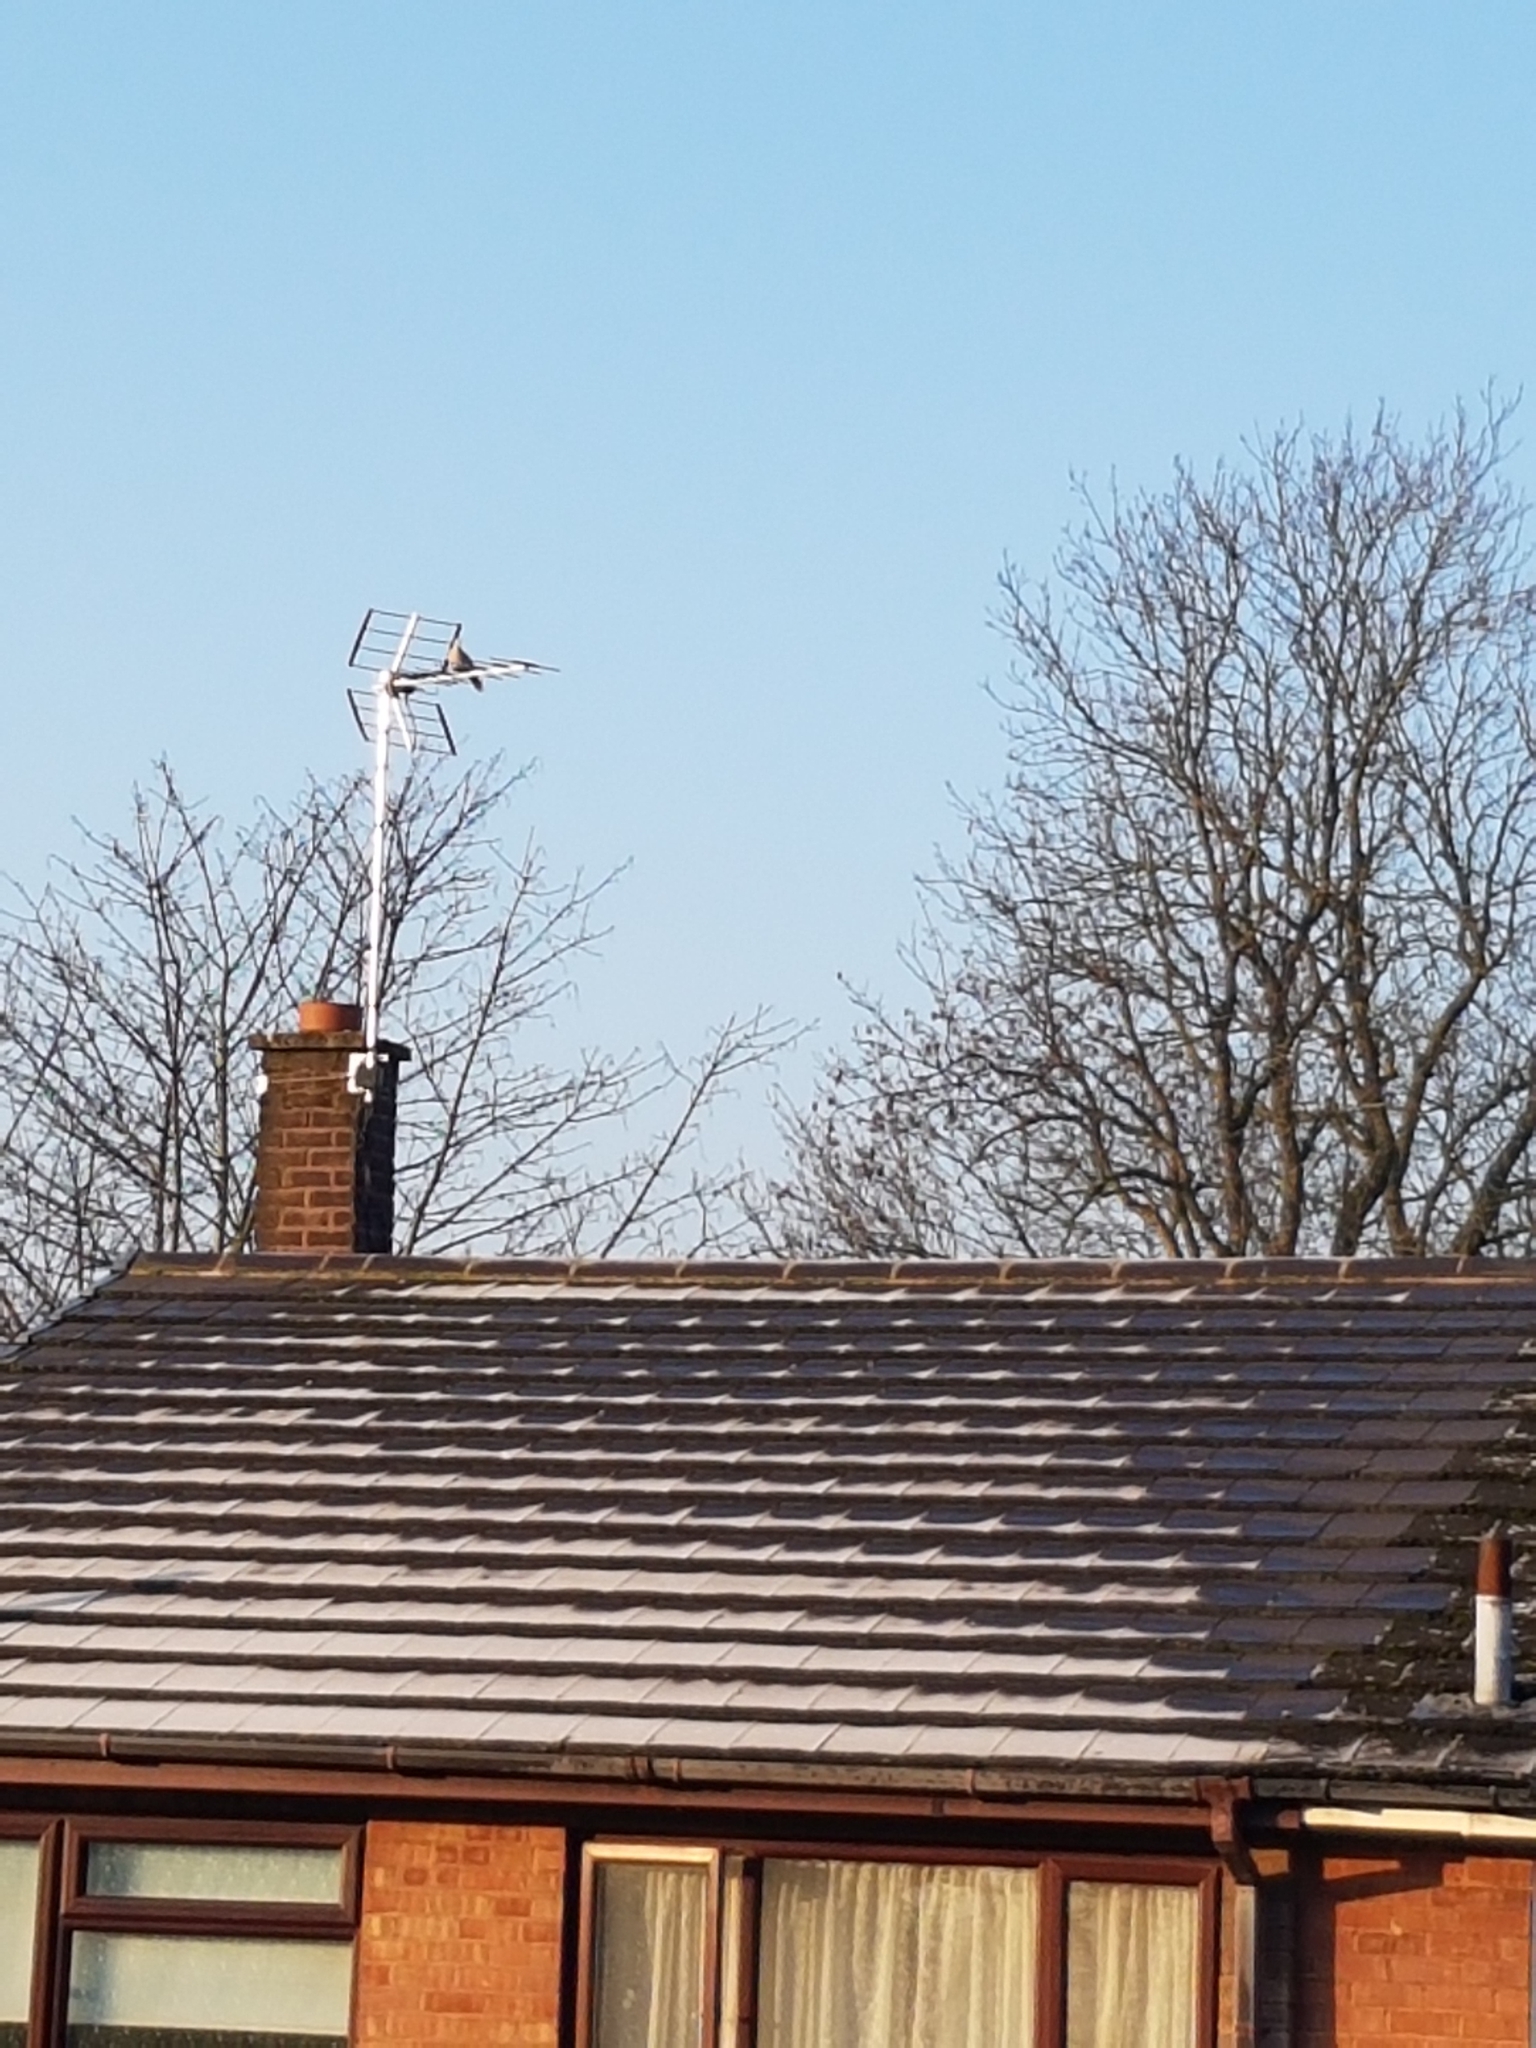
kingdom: Animalia
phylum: Chordata
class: Aves
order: Columbiformes
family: Columbidae
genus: Streptopelia
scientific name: Streptopelia decaocto
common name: Eurasian collared dove
